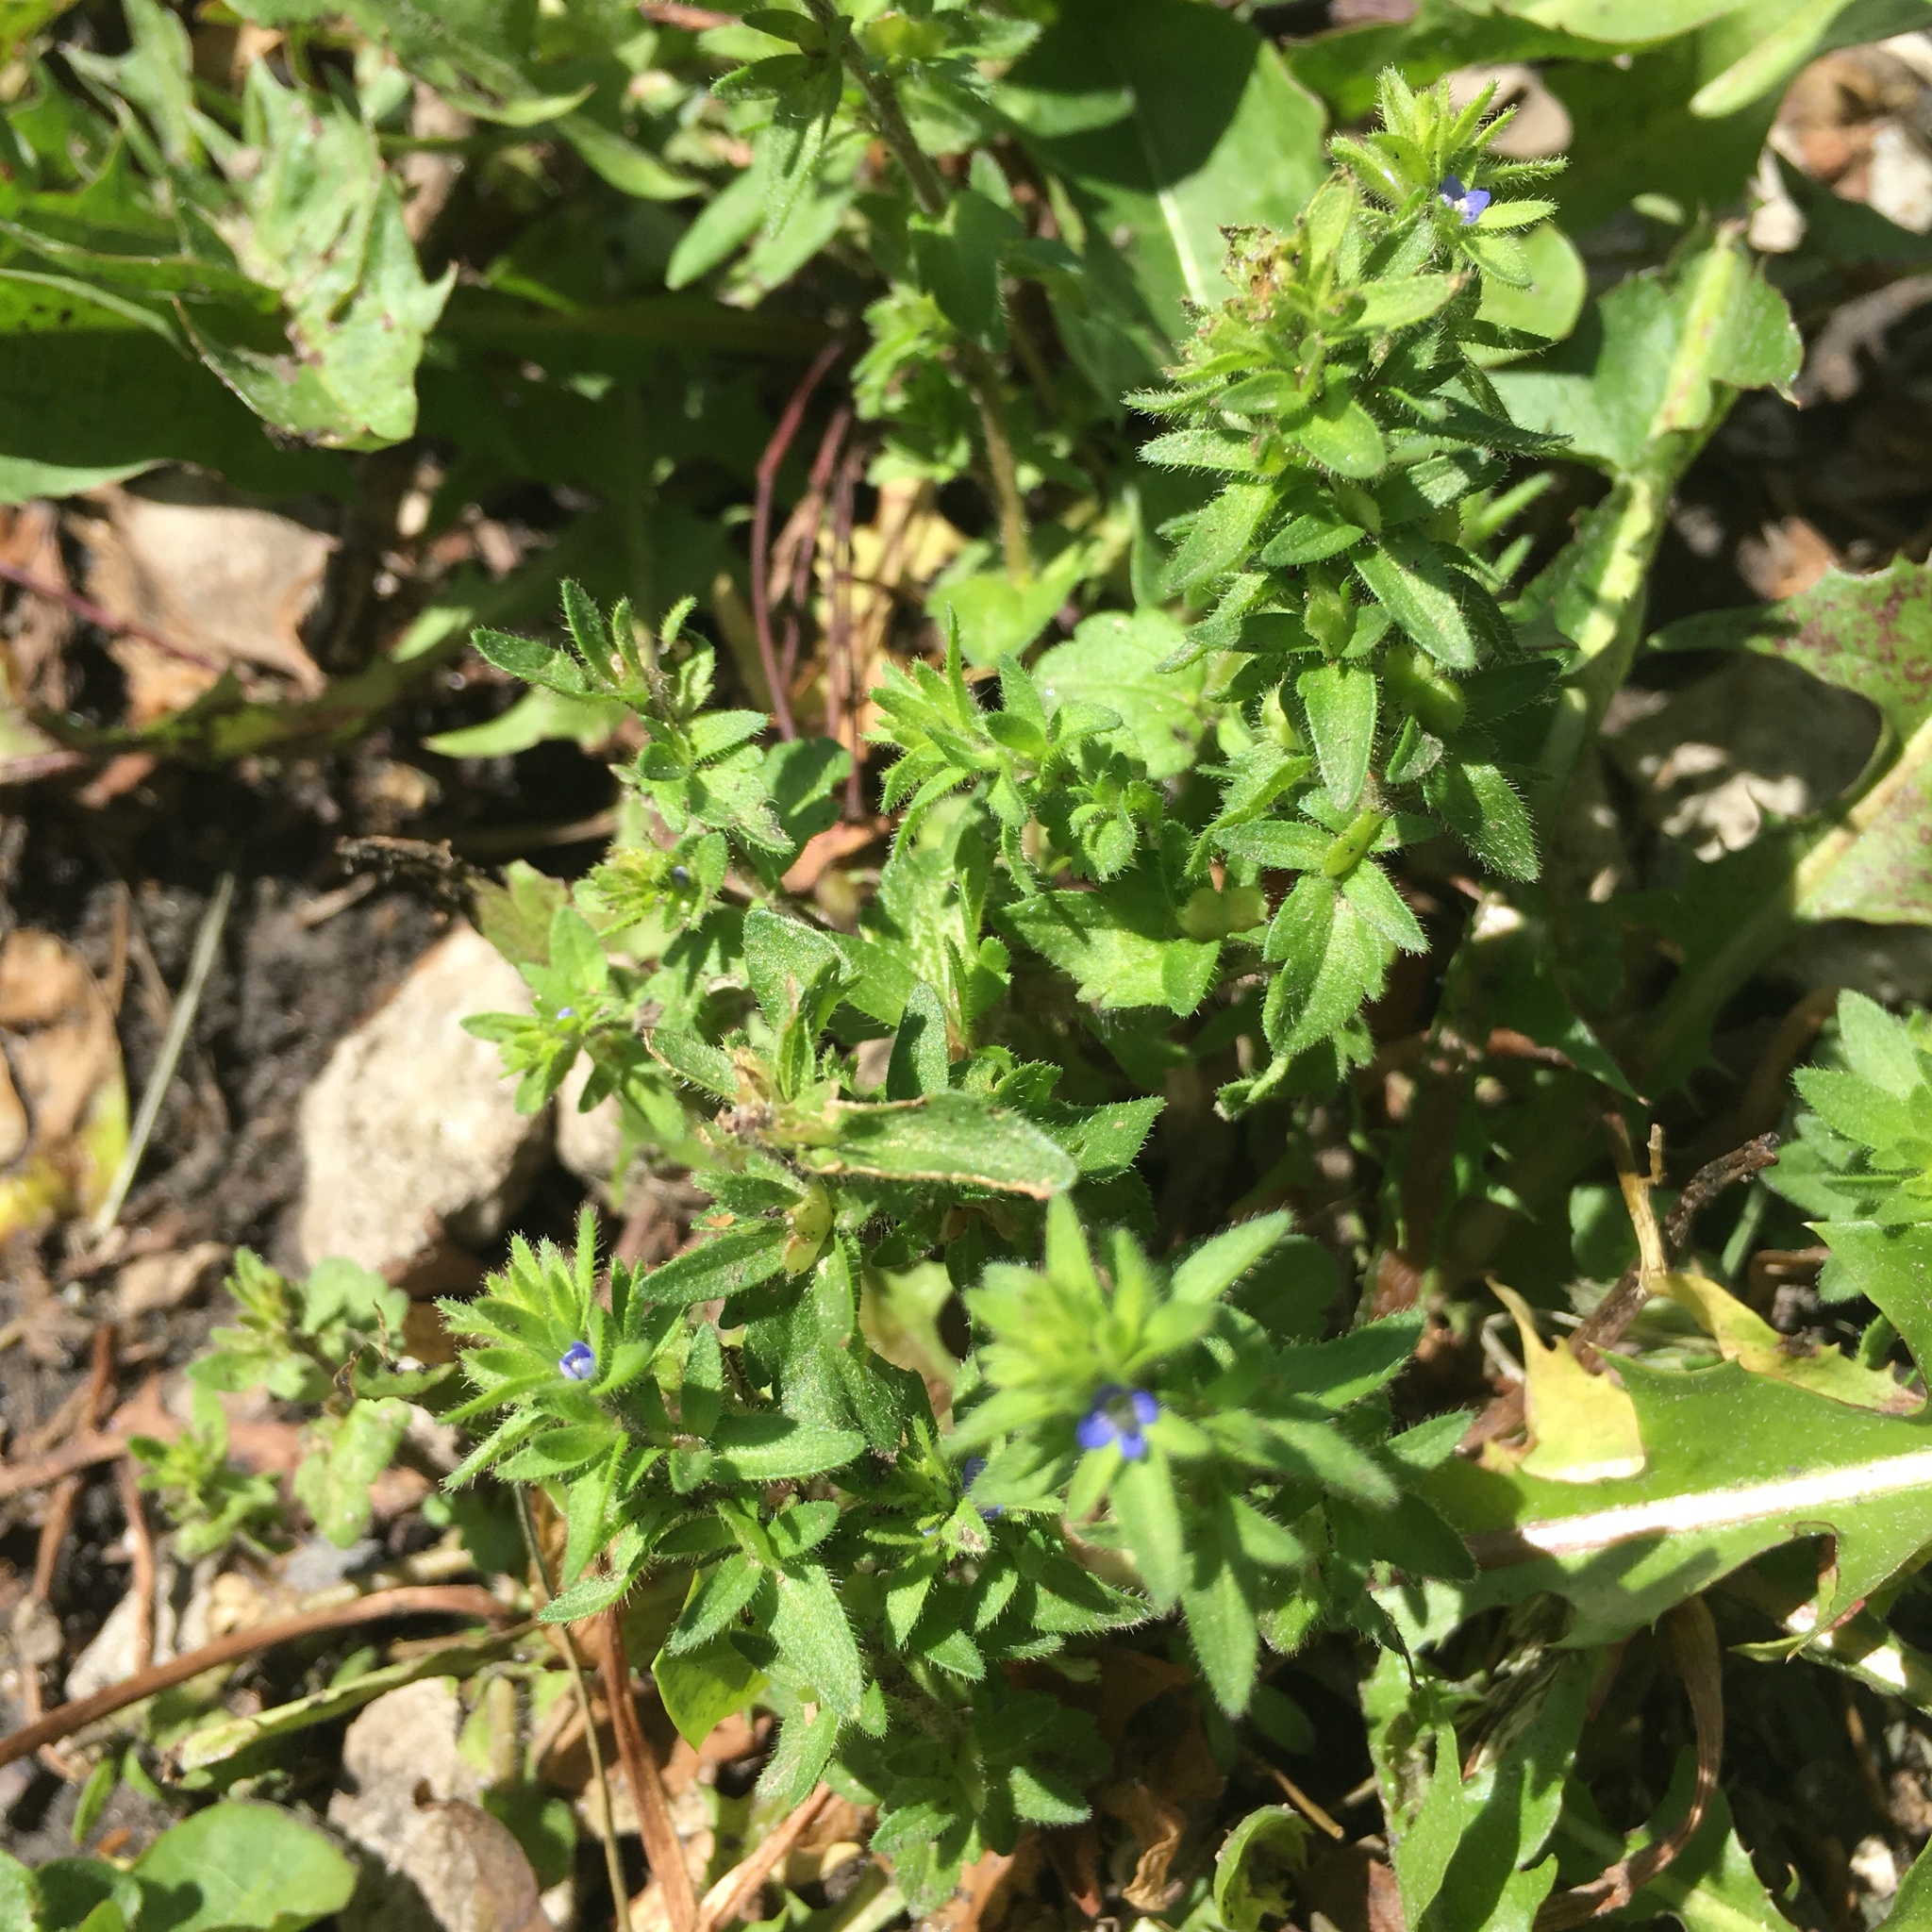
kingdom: Plantae
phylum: Tracheophyta
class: Magnoliopsida
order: Lamiales
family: Plantaginaceae
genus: Veronica
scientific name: Veronica arvensis
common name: Corn speedwell
